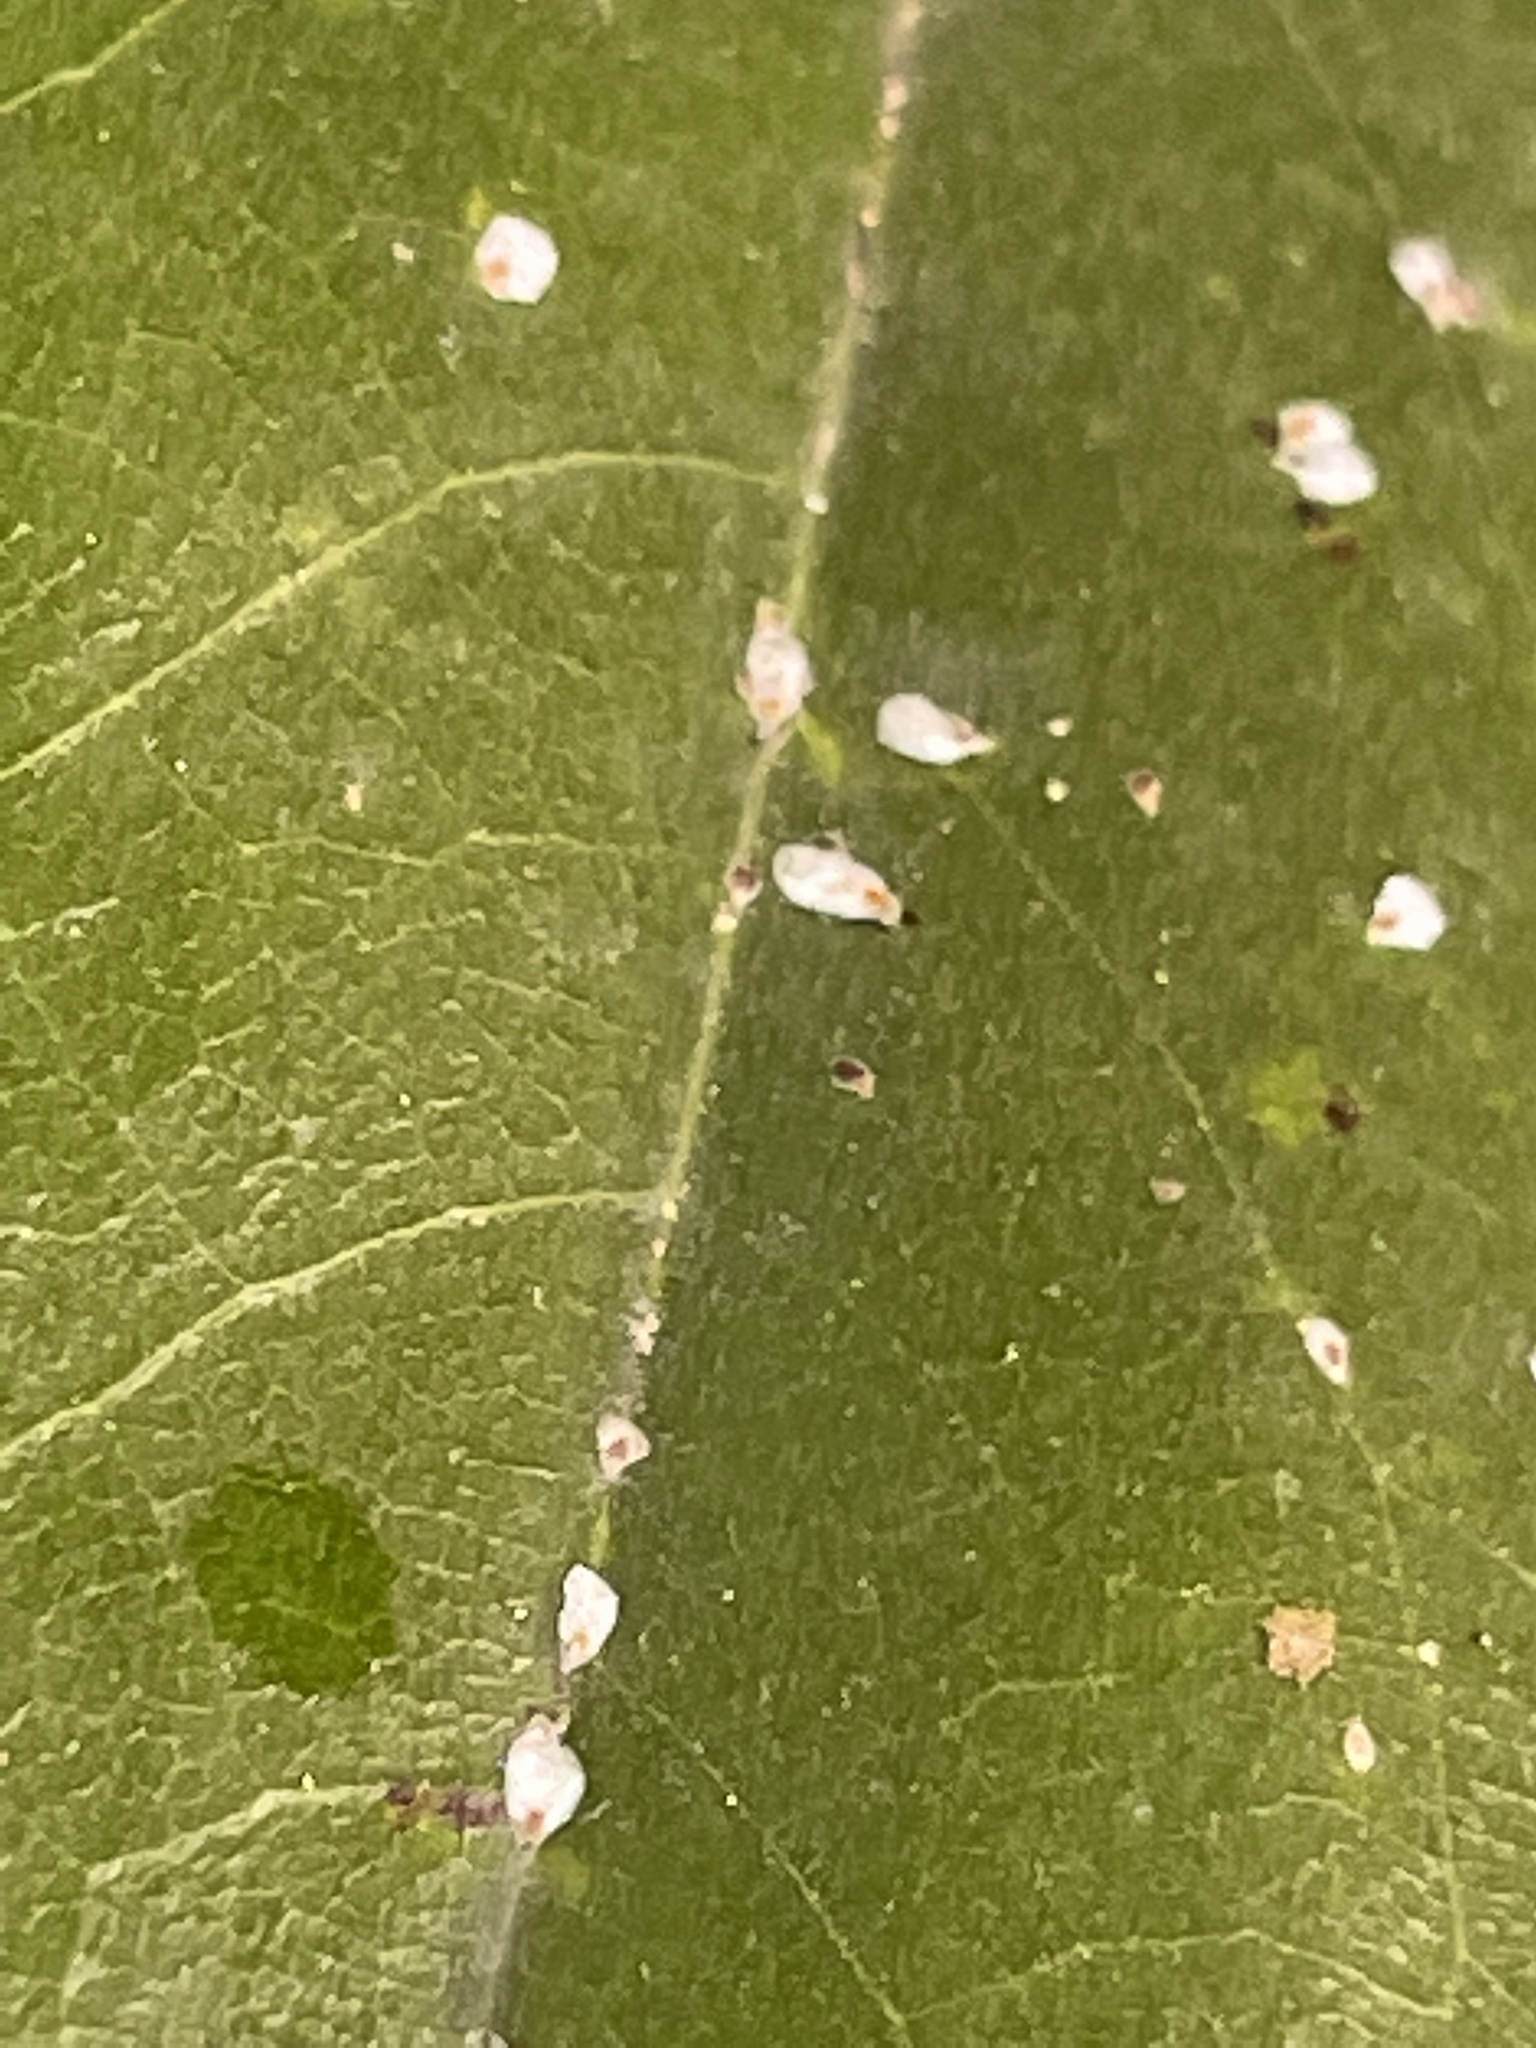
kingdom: Animalia
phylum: Arthropoda
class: Insecta
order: Hemiptera
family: Diaspididae
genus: Pseudaulacaspis
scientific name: Pseudaulacaspis cockerelli
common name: False oleander scale
